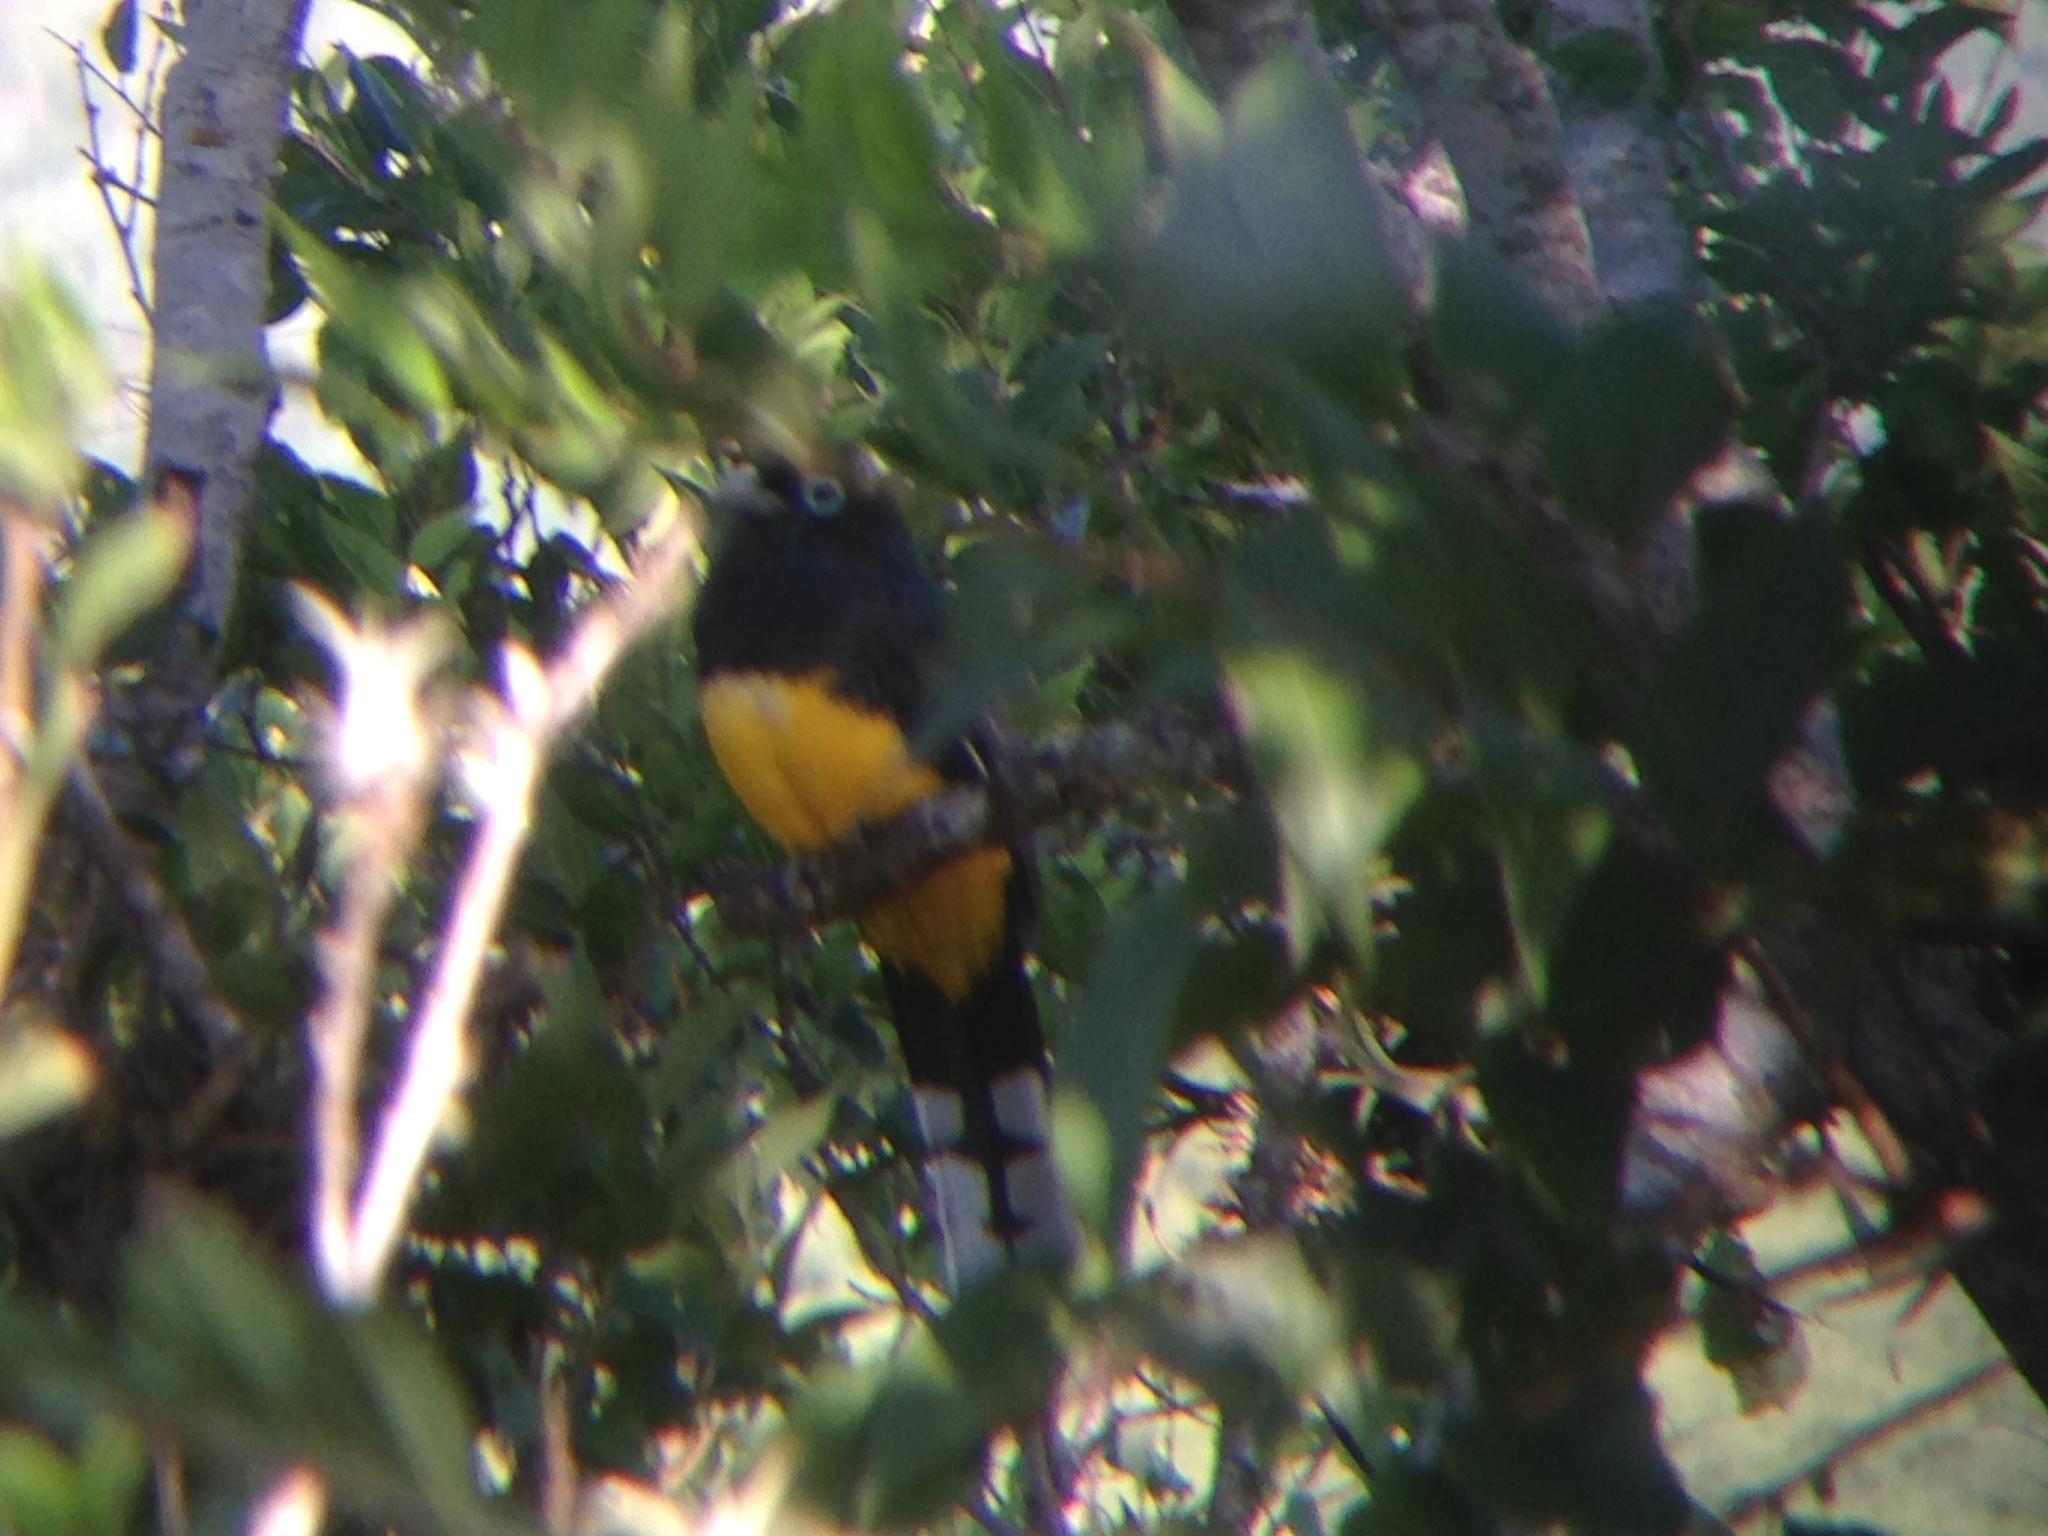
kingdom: Animalia
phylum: Chordata
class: Aves
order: Trogoniformes
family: Trogonidae
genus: Trogon
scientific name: Trogon melanocephalus
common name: Black-headed trogon
